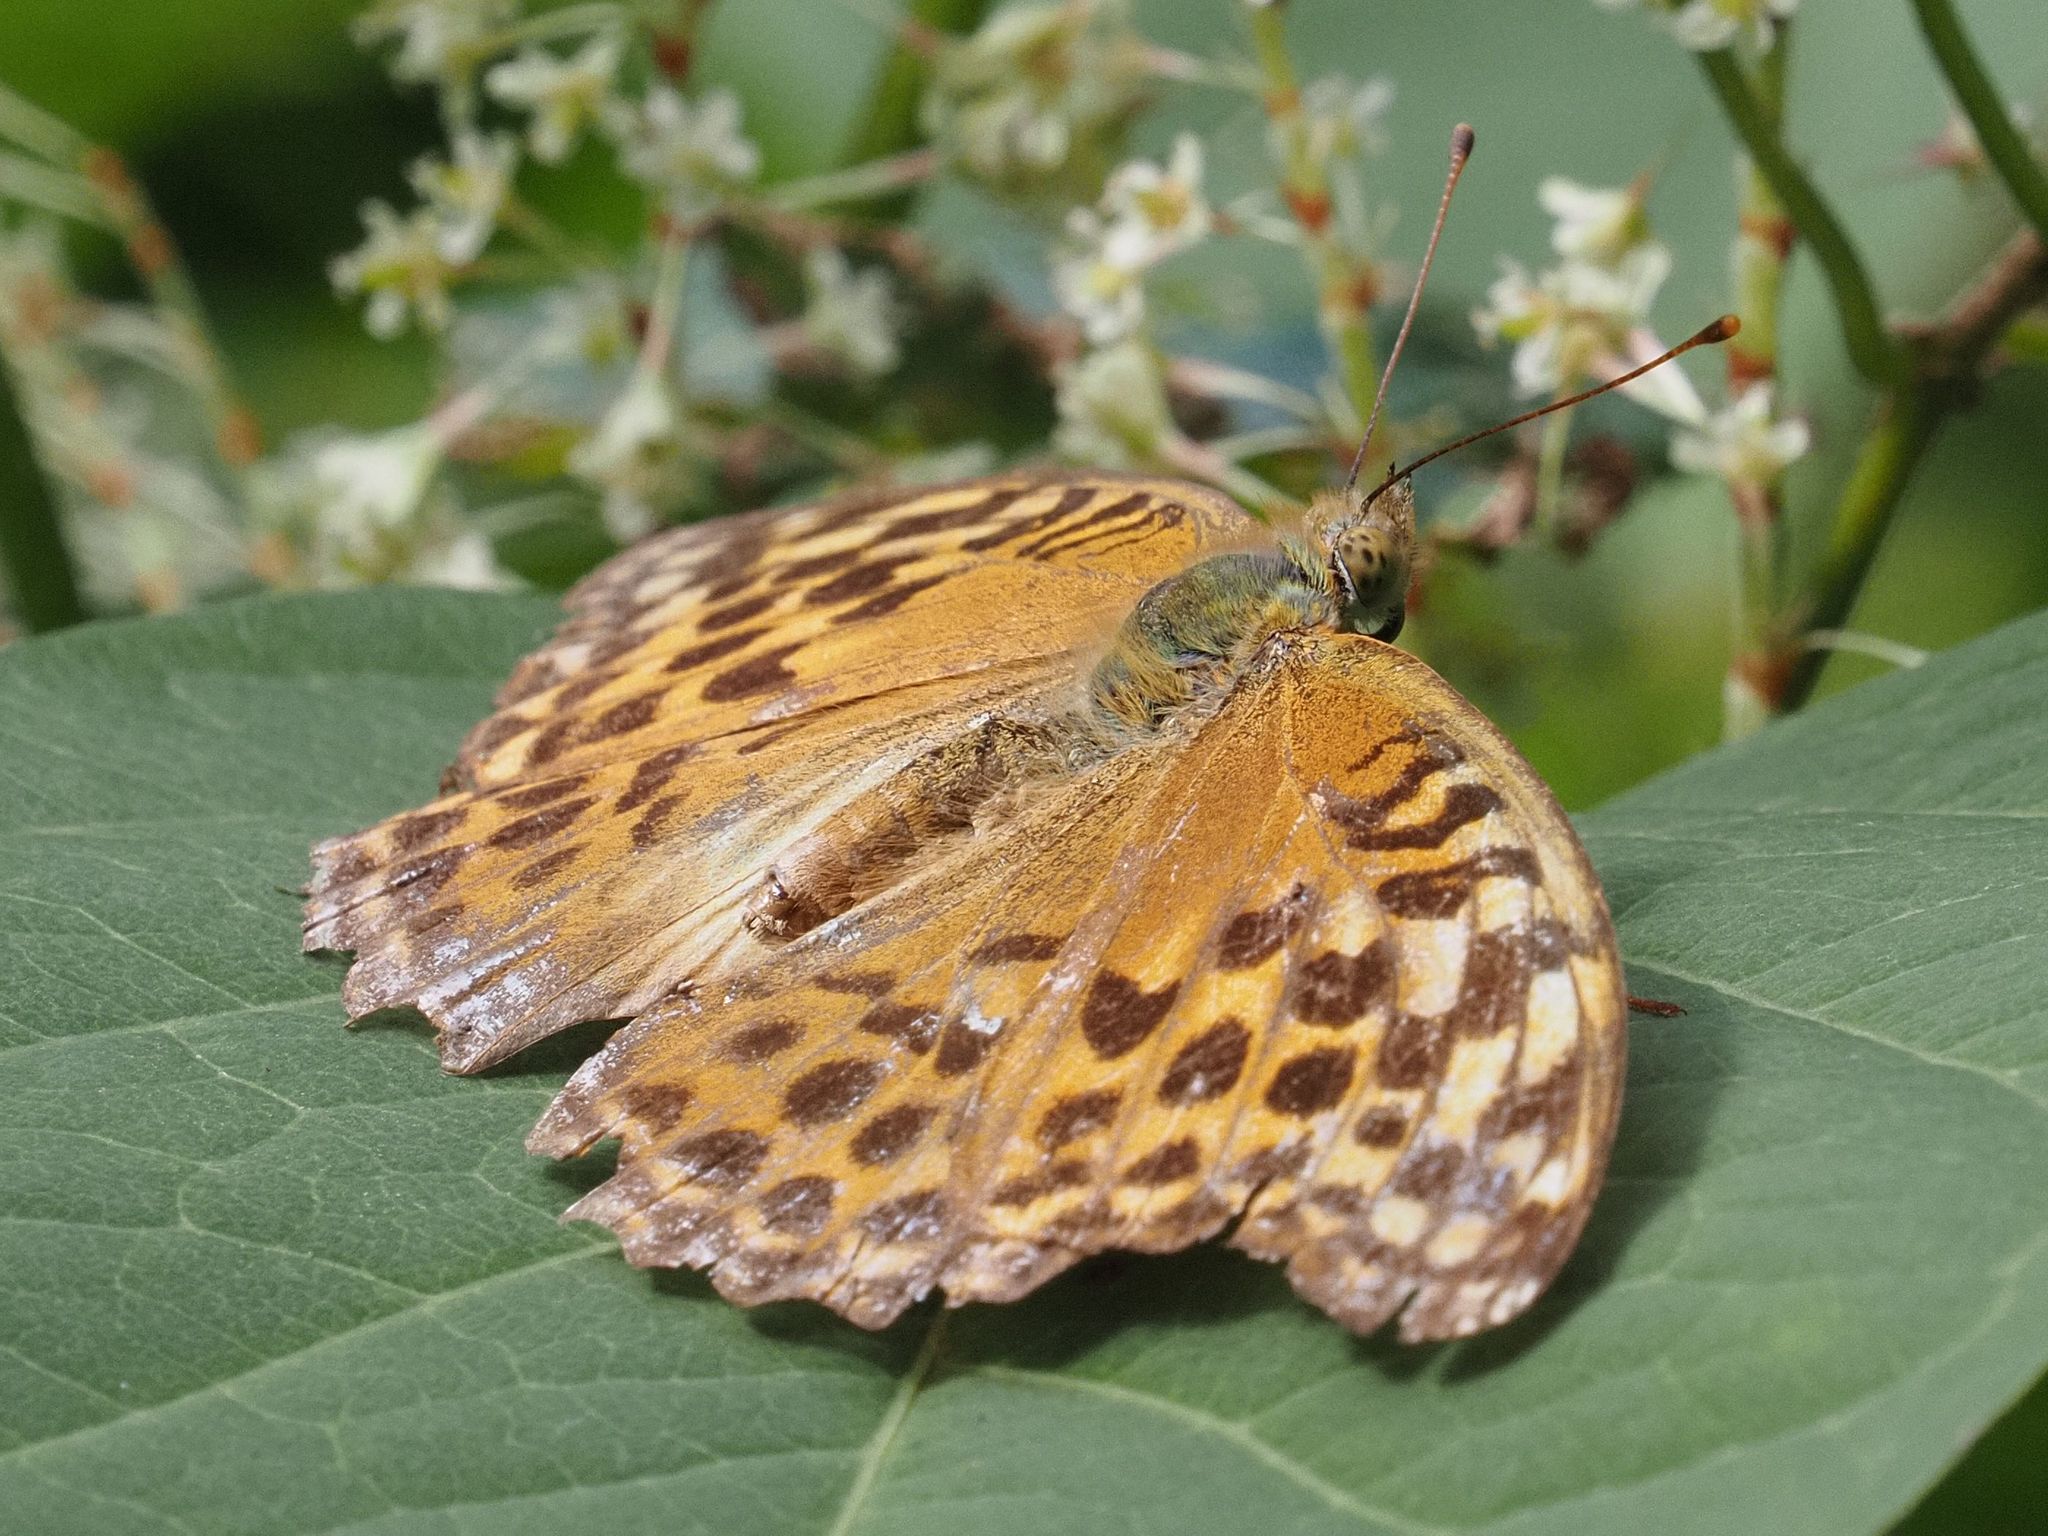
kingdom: Animalia
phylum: Arthropoda
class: Insecta
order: Lepidoptera
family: Nymphalidae
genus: Argynnis
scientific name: Argynnis paphia
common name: Silver-washed fritillary
